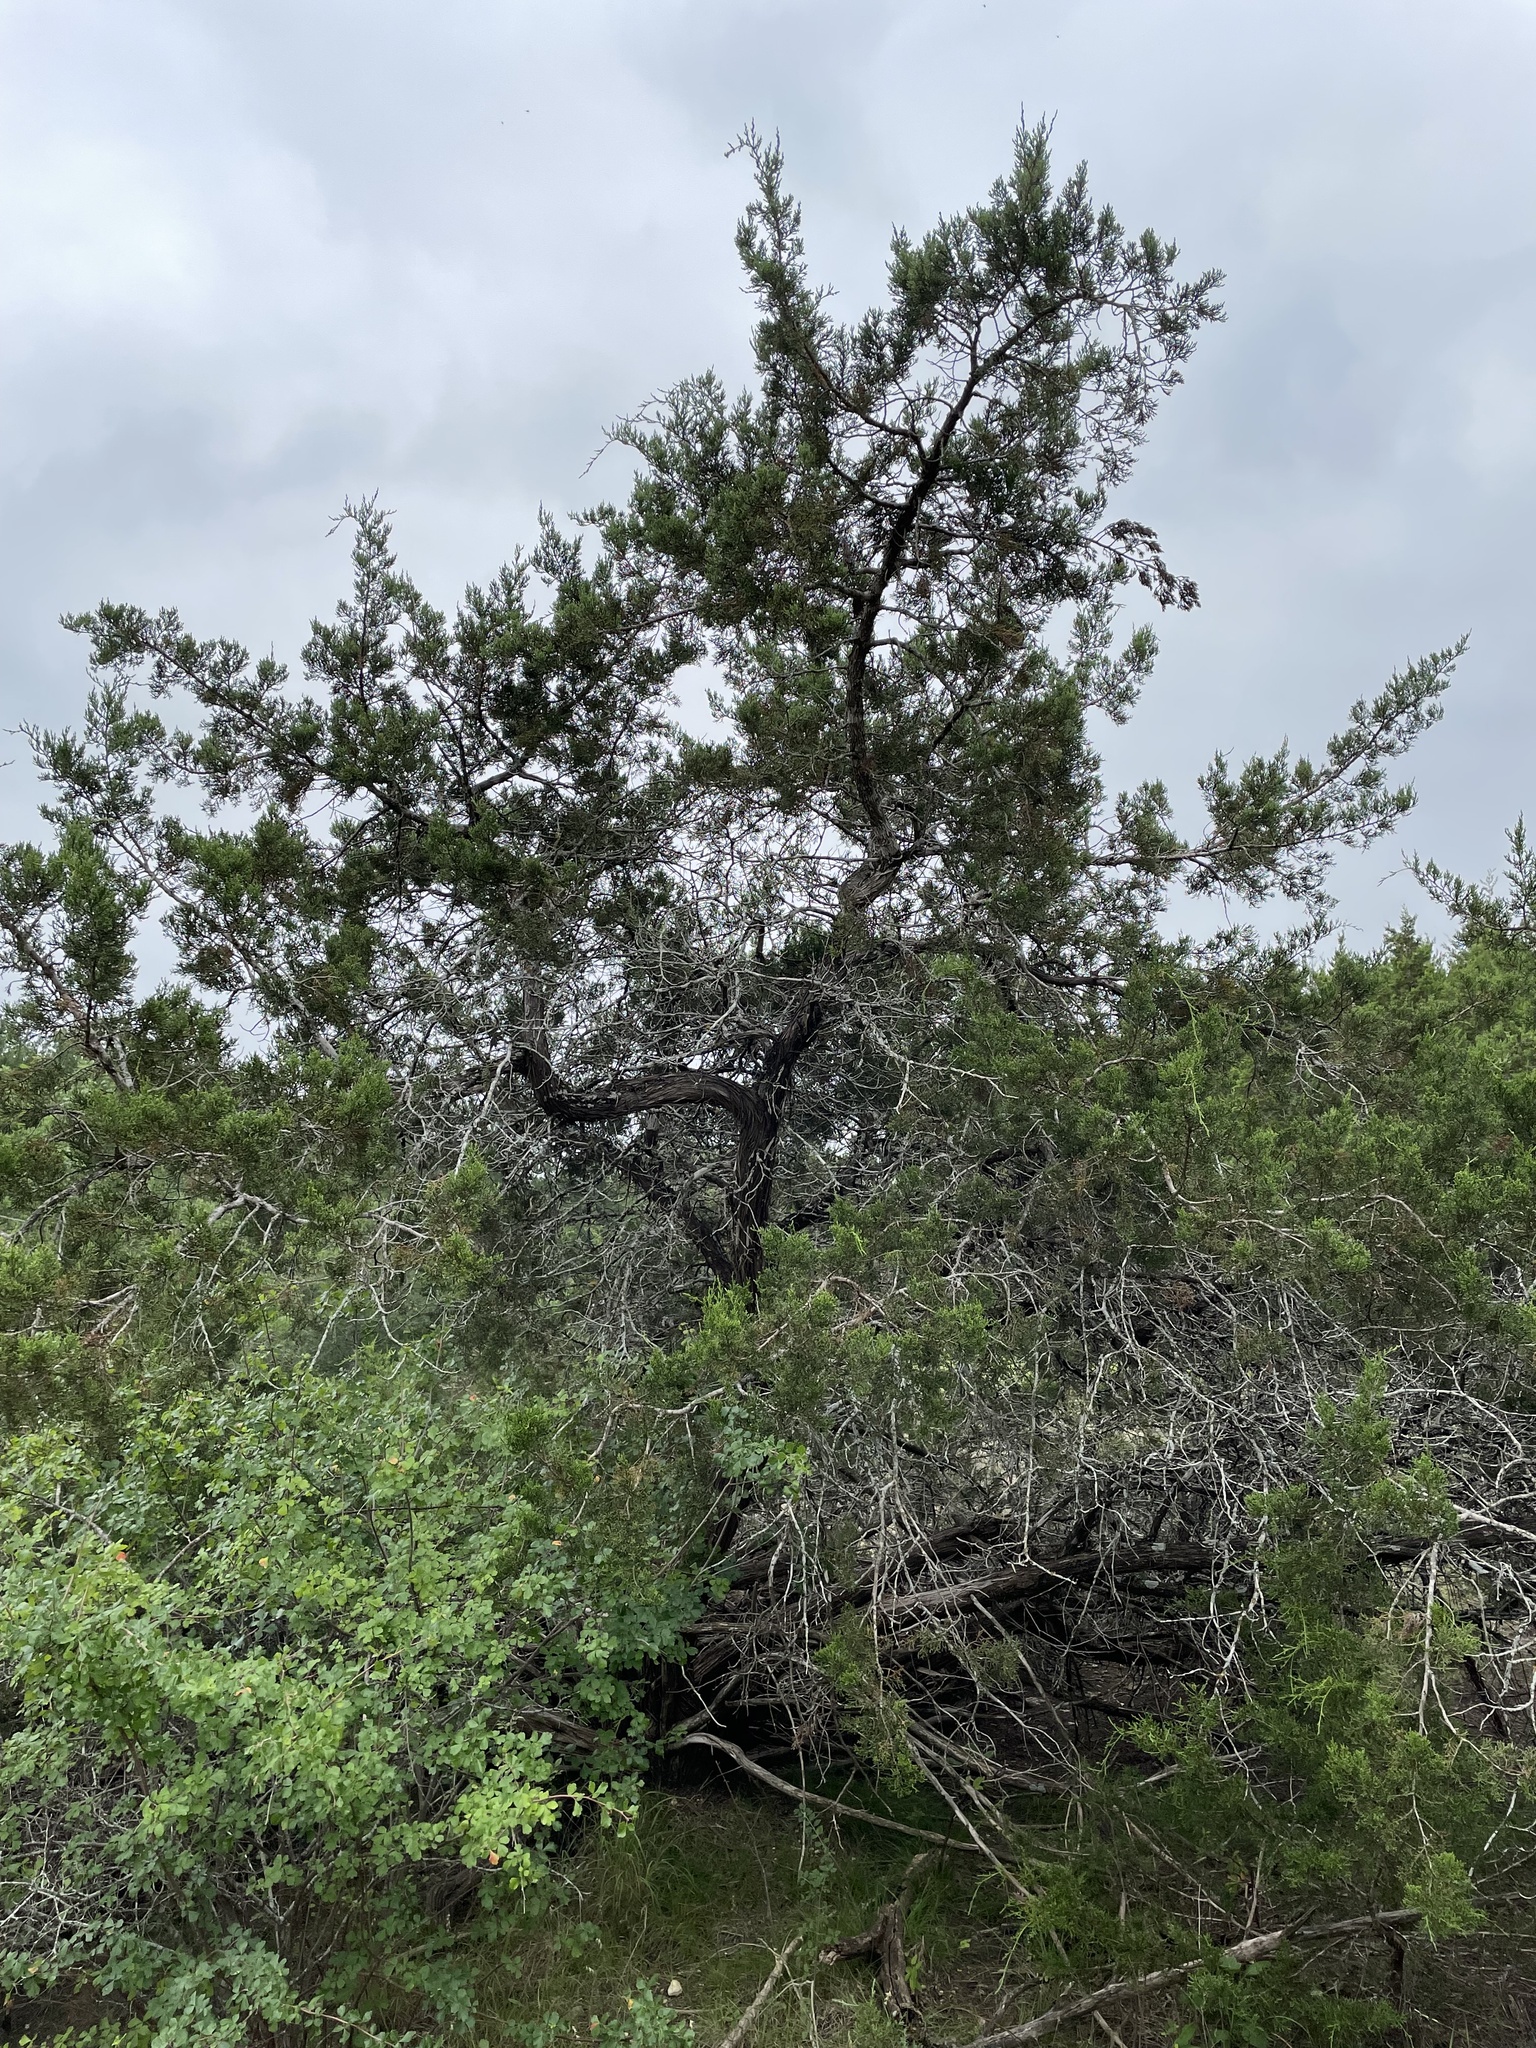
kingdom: Plantae
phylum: Tracheophyta
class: Pinopsida
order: Pinales
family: Cupressaceae
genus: Juniperus
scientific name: Juniperus ashei
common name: Mexican juniper
